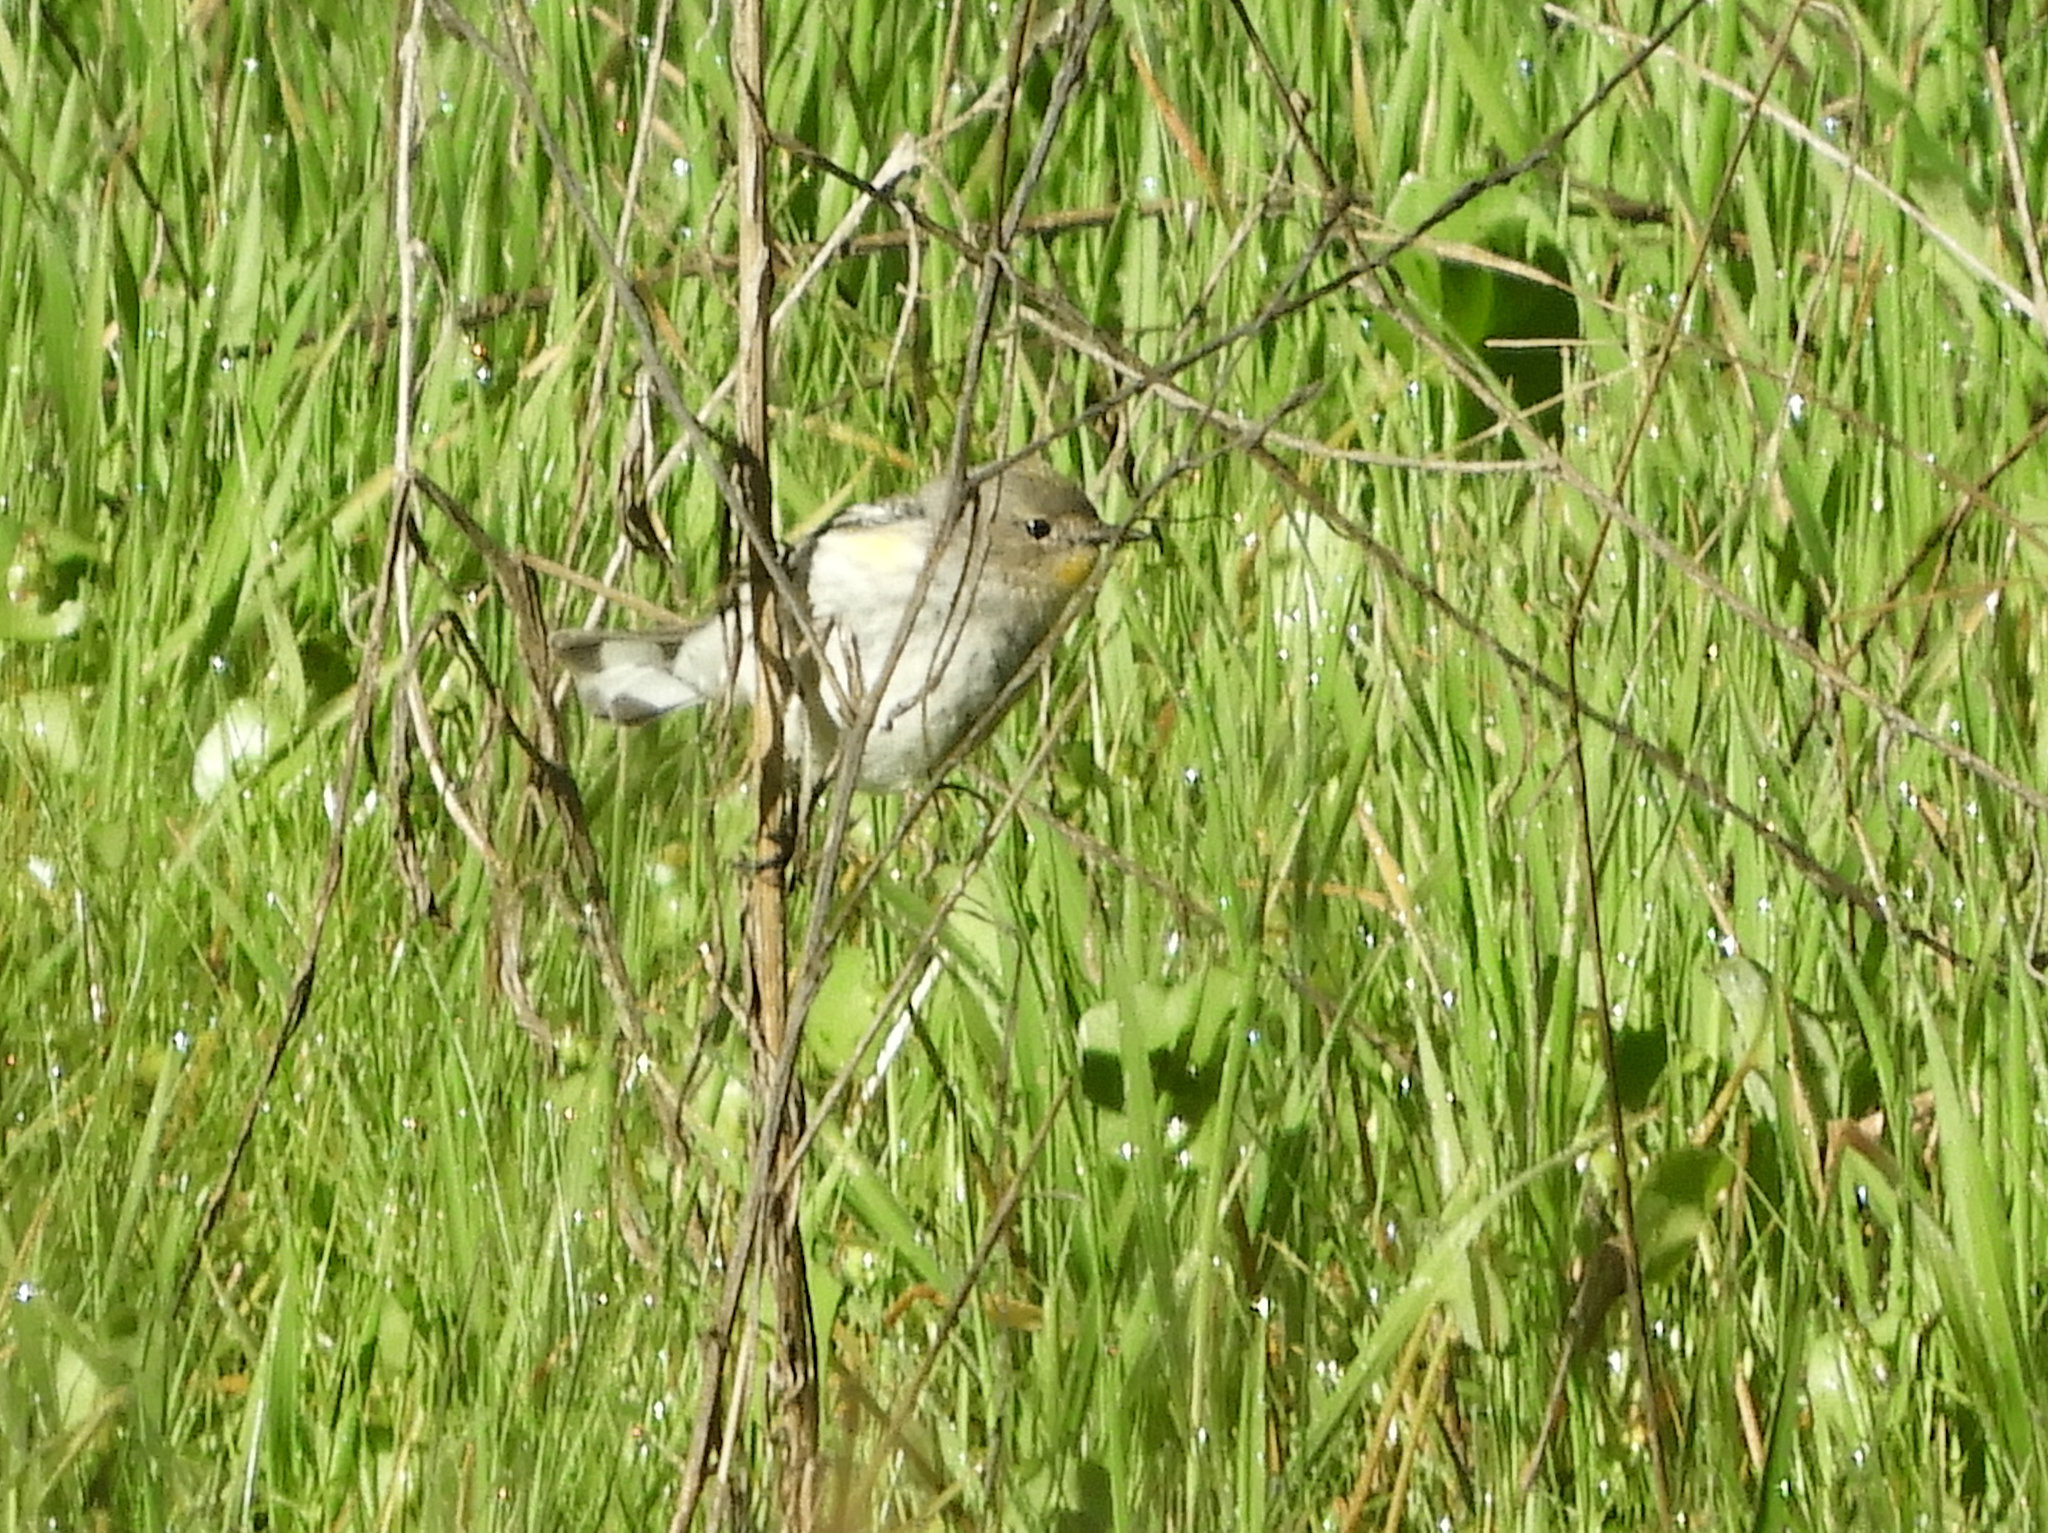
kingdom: Animalia
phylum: Chordata
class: Aves
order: Passeriformes
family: Parulidae
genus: Setophaga
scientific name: Setophaga coronata
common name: Myrtle warbler
